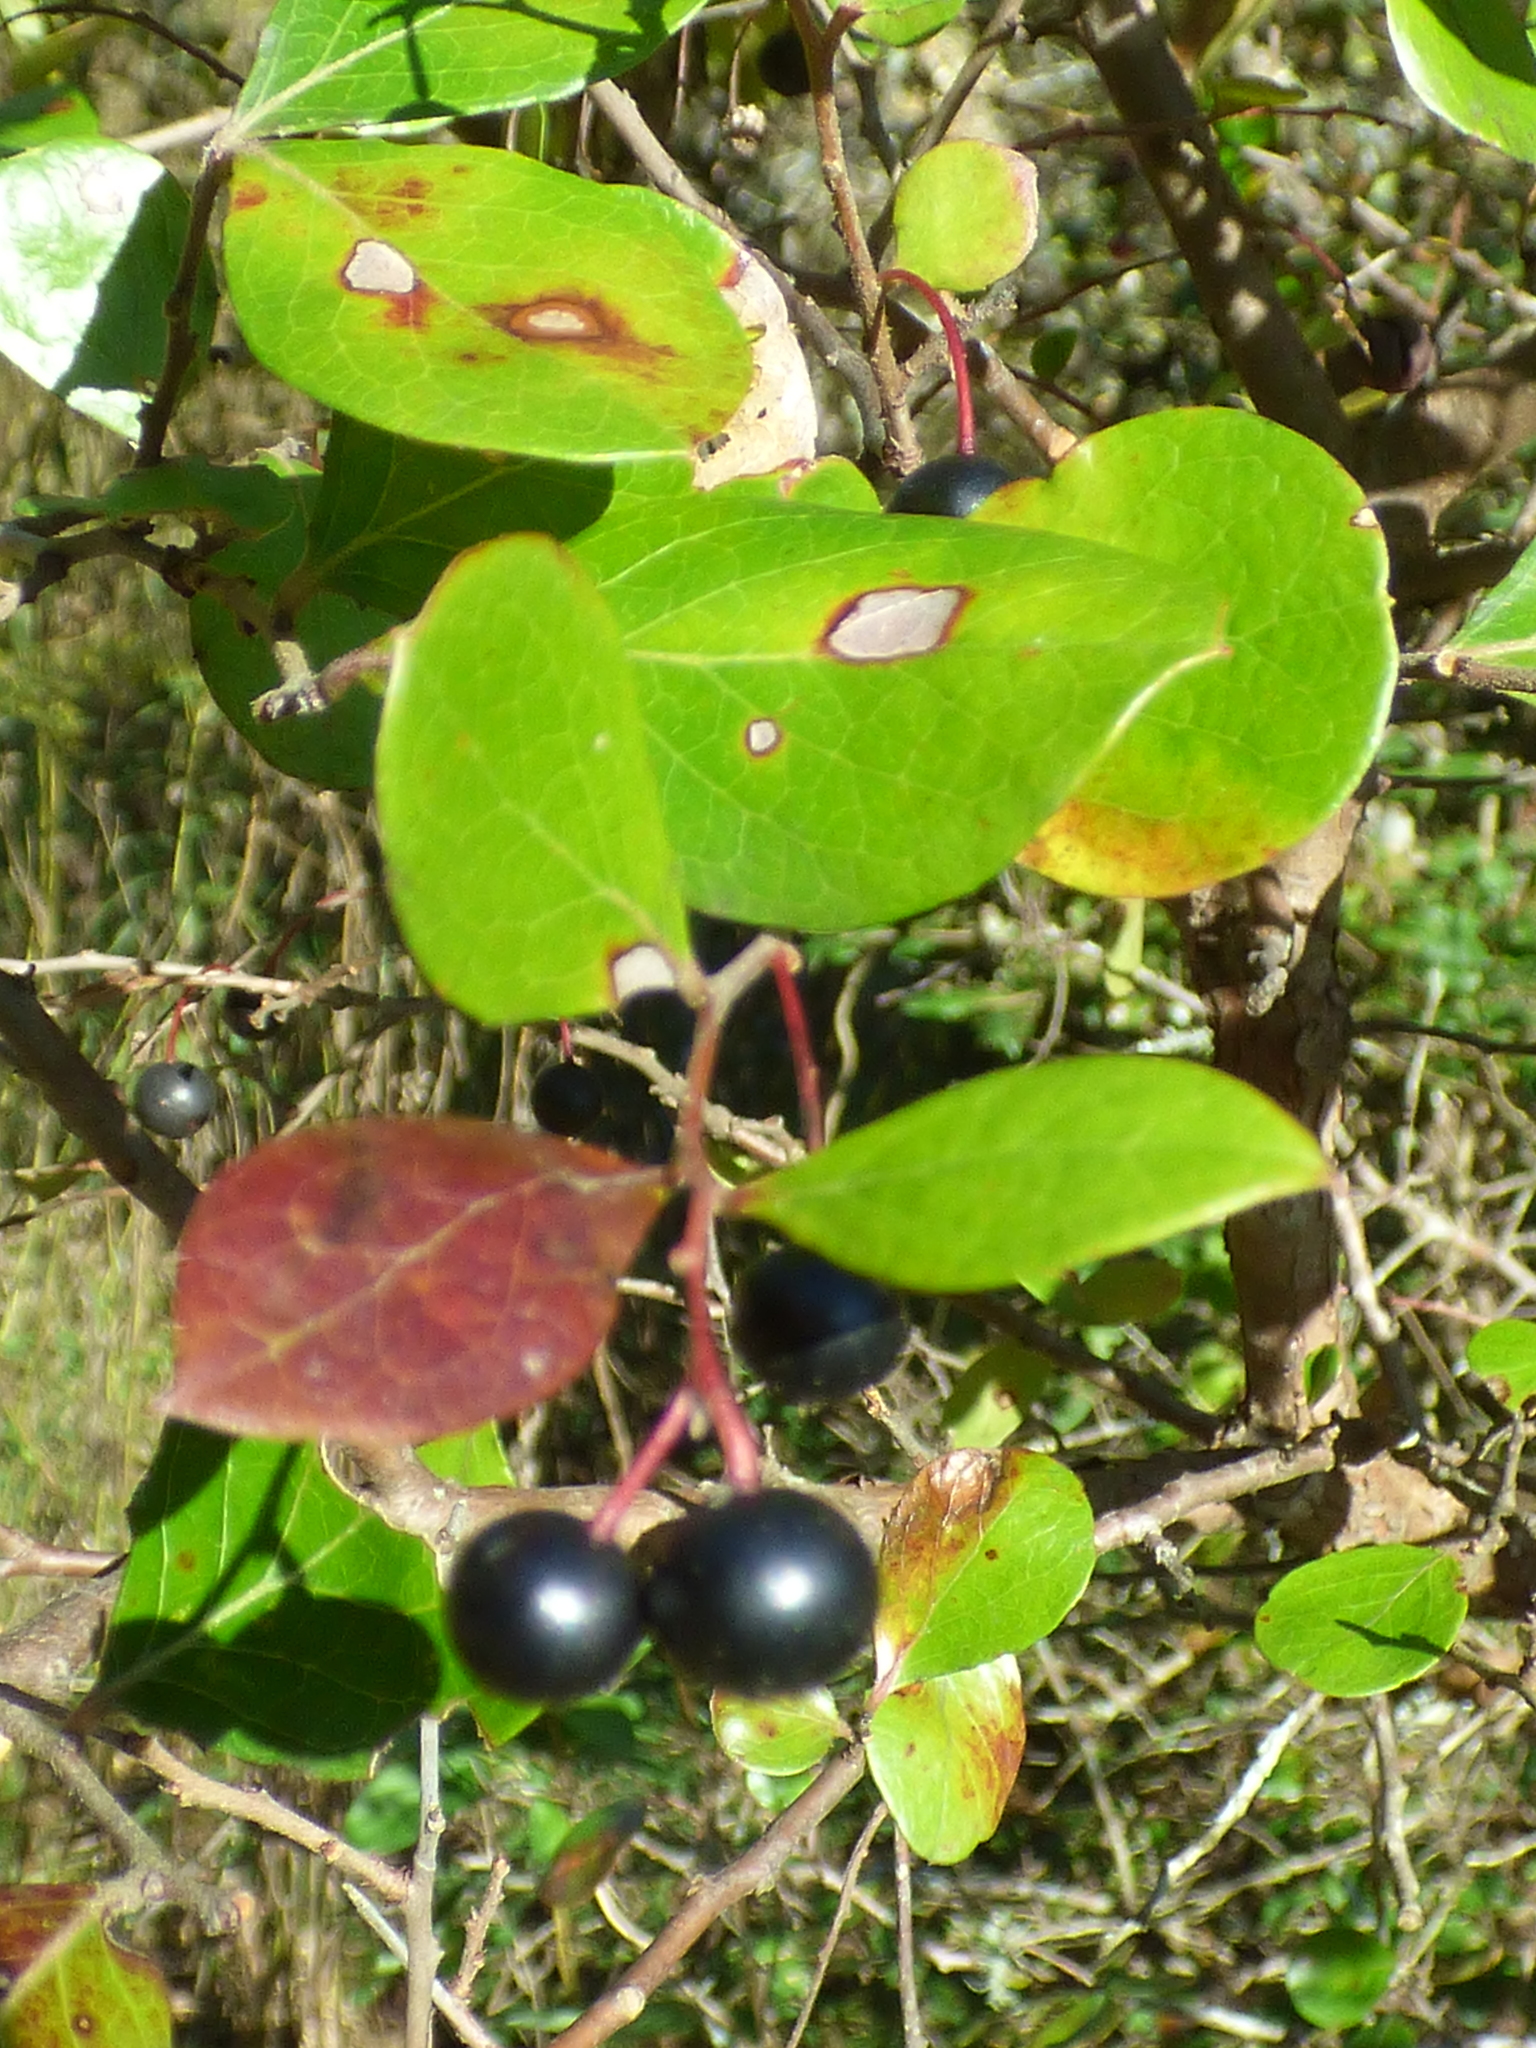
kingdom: Plantae
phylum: Tracheophyta
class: Magnoliopsida
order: Ericales
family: Ericaceae
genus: Vaccinium
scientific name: Vaccinium arboreum
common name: Farkleberry
